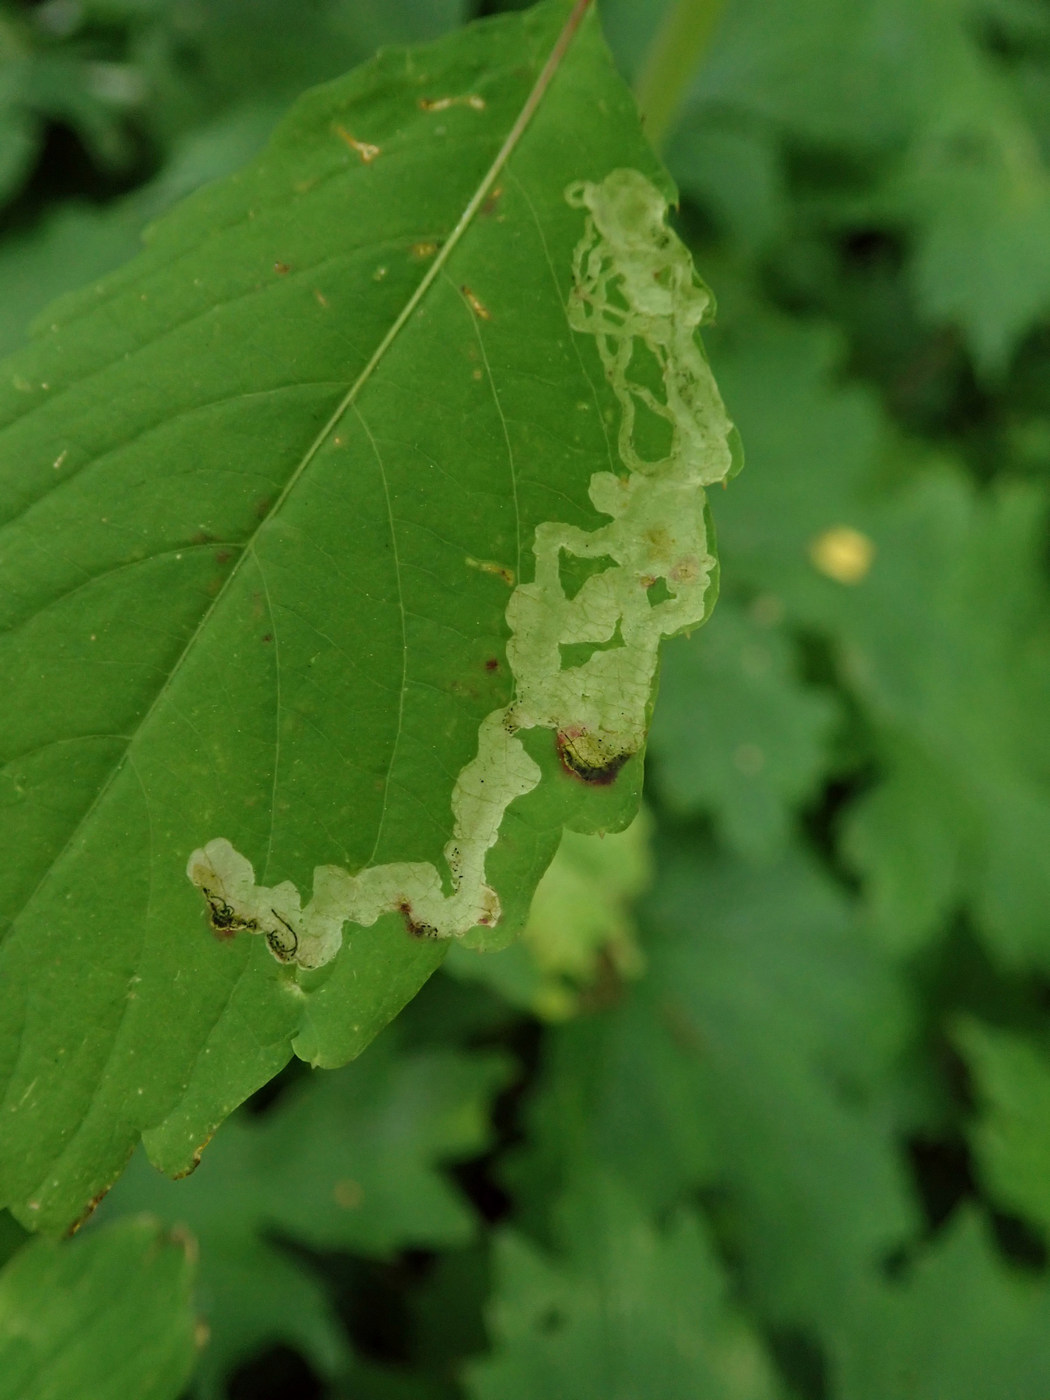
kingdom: Animalia
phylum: Arthropoda
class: Insecta
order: Diptera
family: Agromyzidae
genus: Phytoliriomyza
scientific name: Phytoliriomyza melampyga
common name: Jewelweed leaf-miner fly
